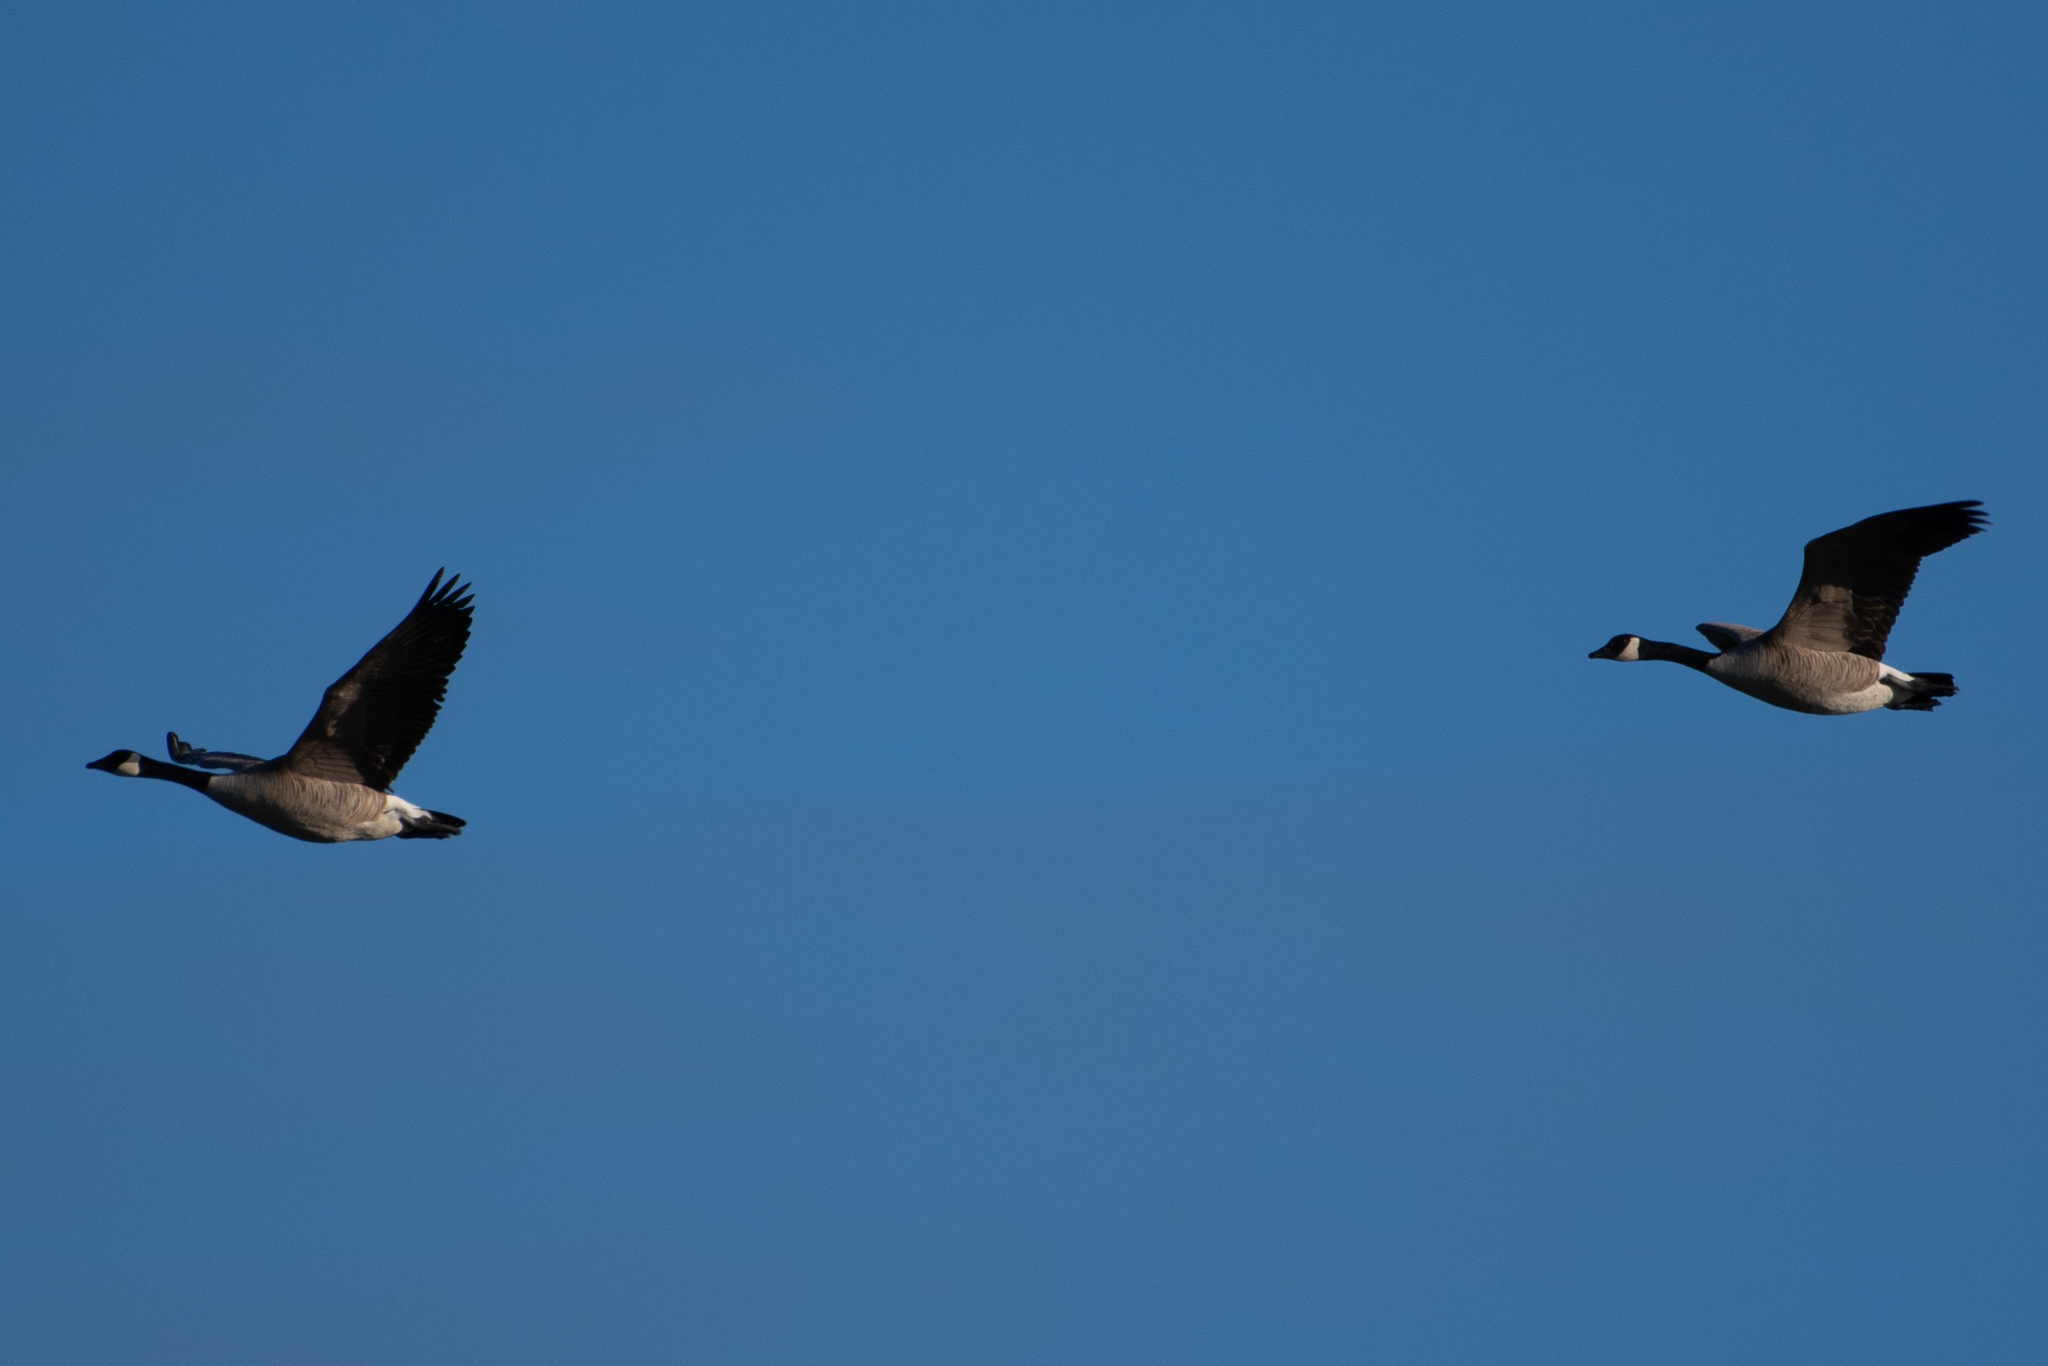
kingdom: Animalia
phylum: Chordata
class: Aves
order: Anseriformes
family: Anatidae
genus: Branta
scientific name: Branta canadensis
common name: Canada goose
